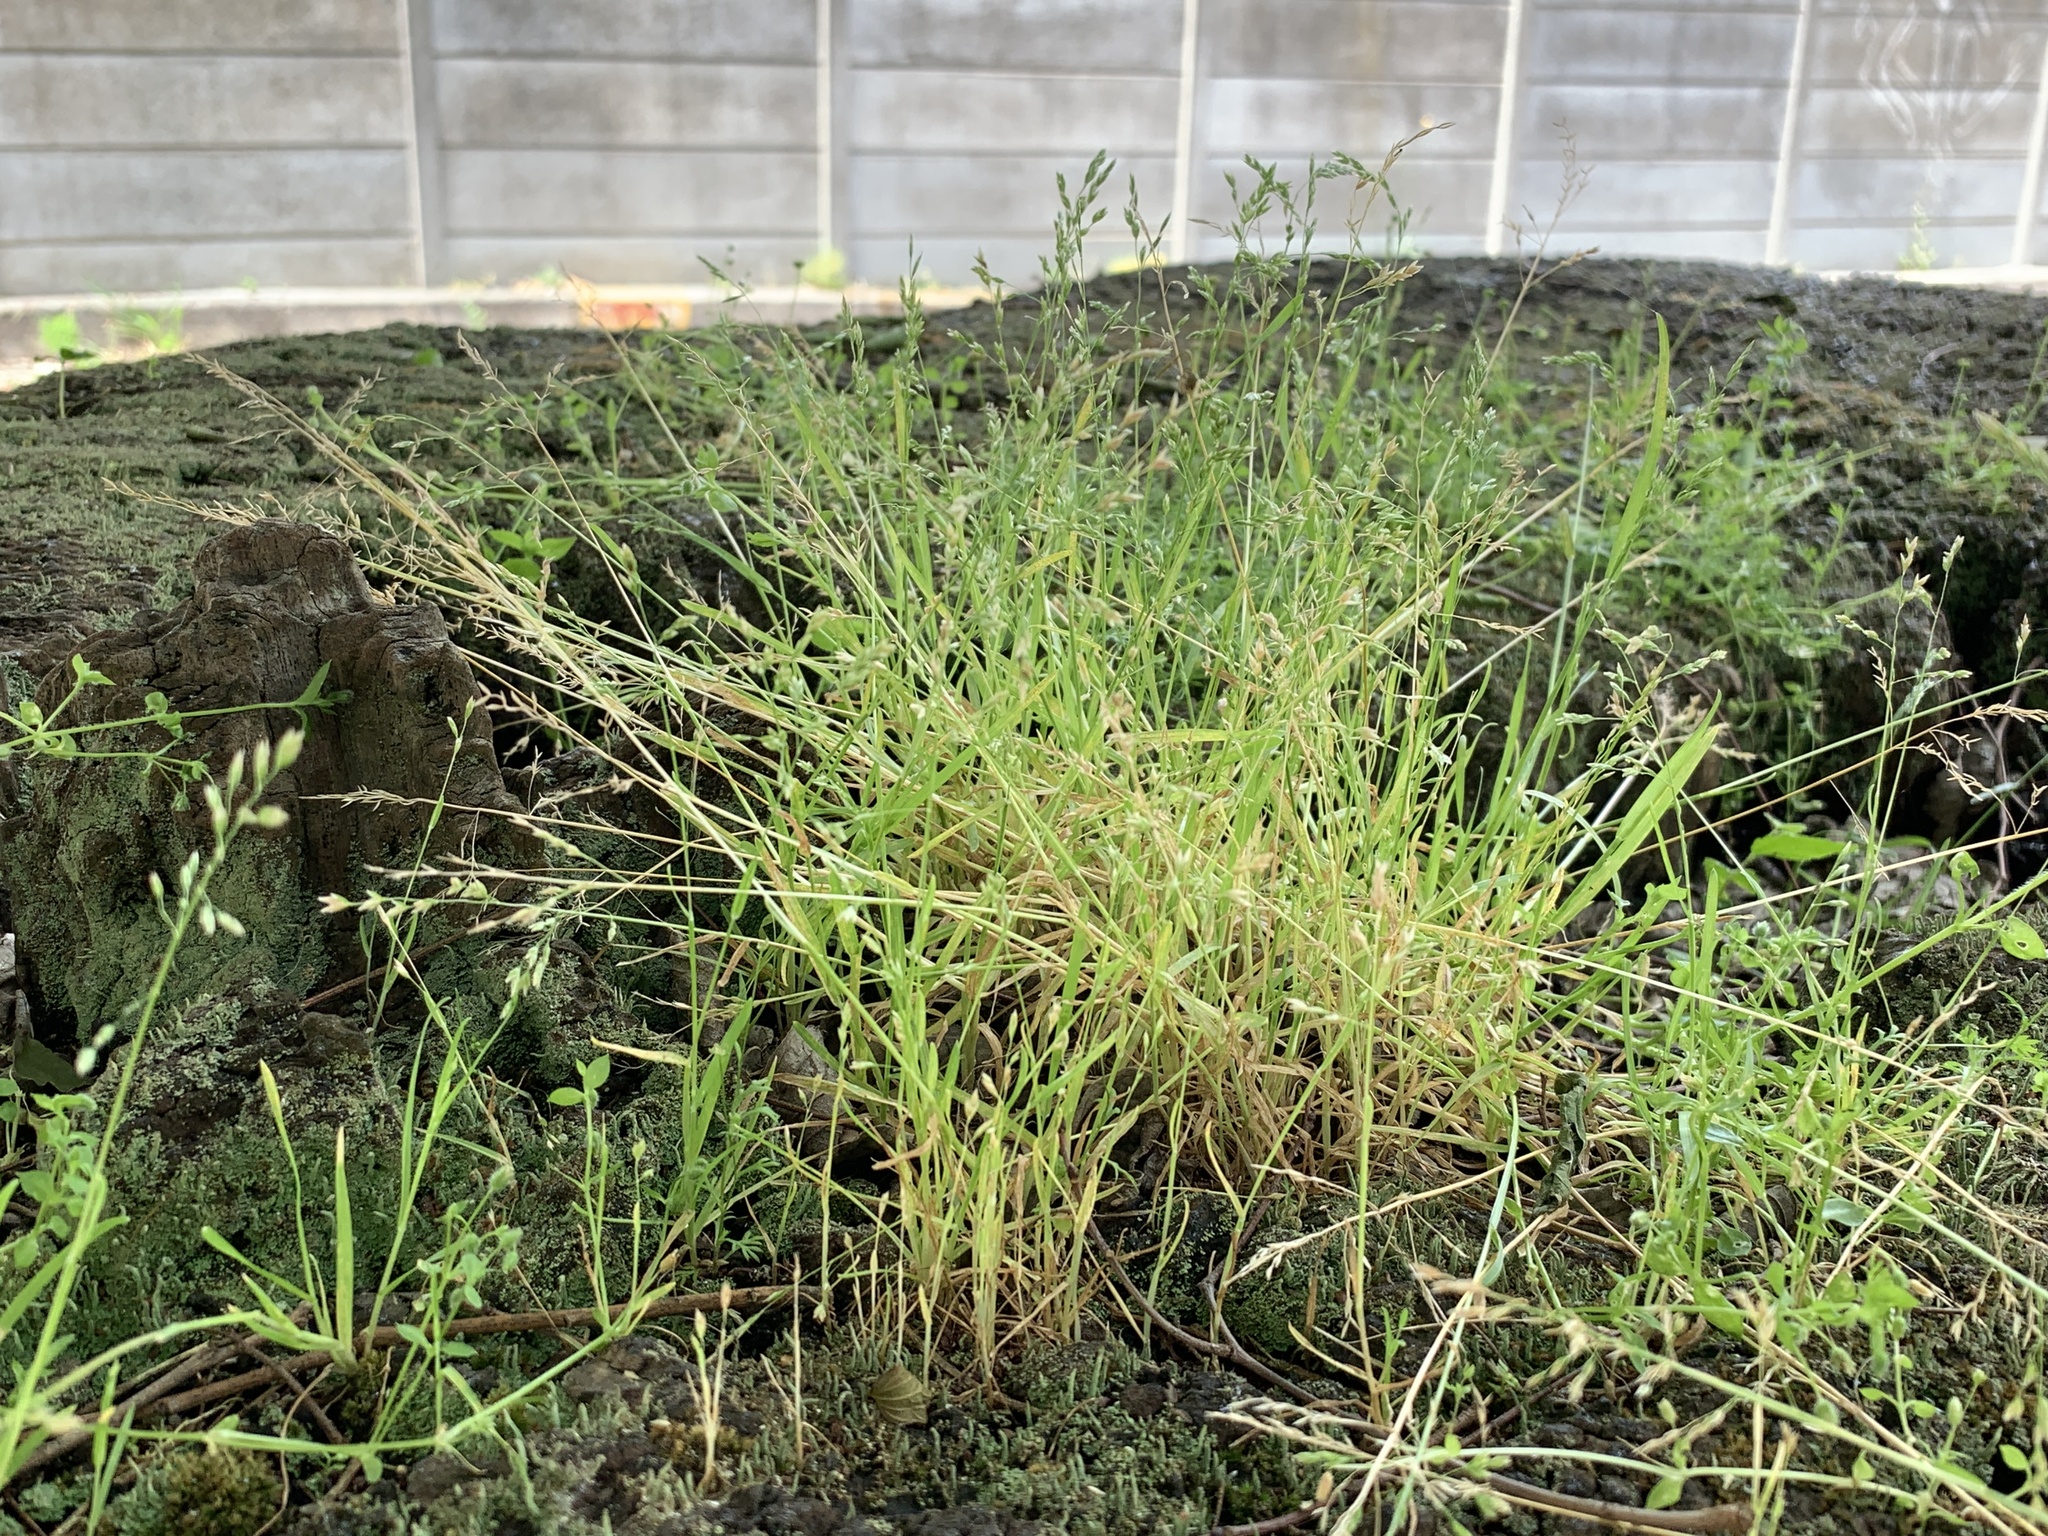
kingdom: Plantae
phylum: Tracheophyta
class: Liliopsida
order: Poales
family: Poaceae
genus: Poa
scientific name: Poa annua
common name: Annual bluegrass
